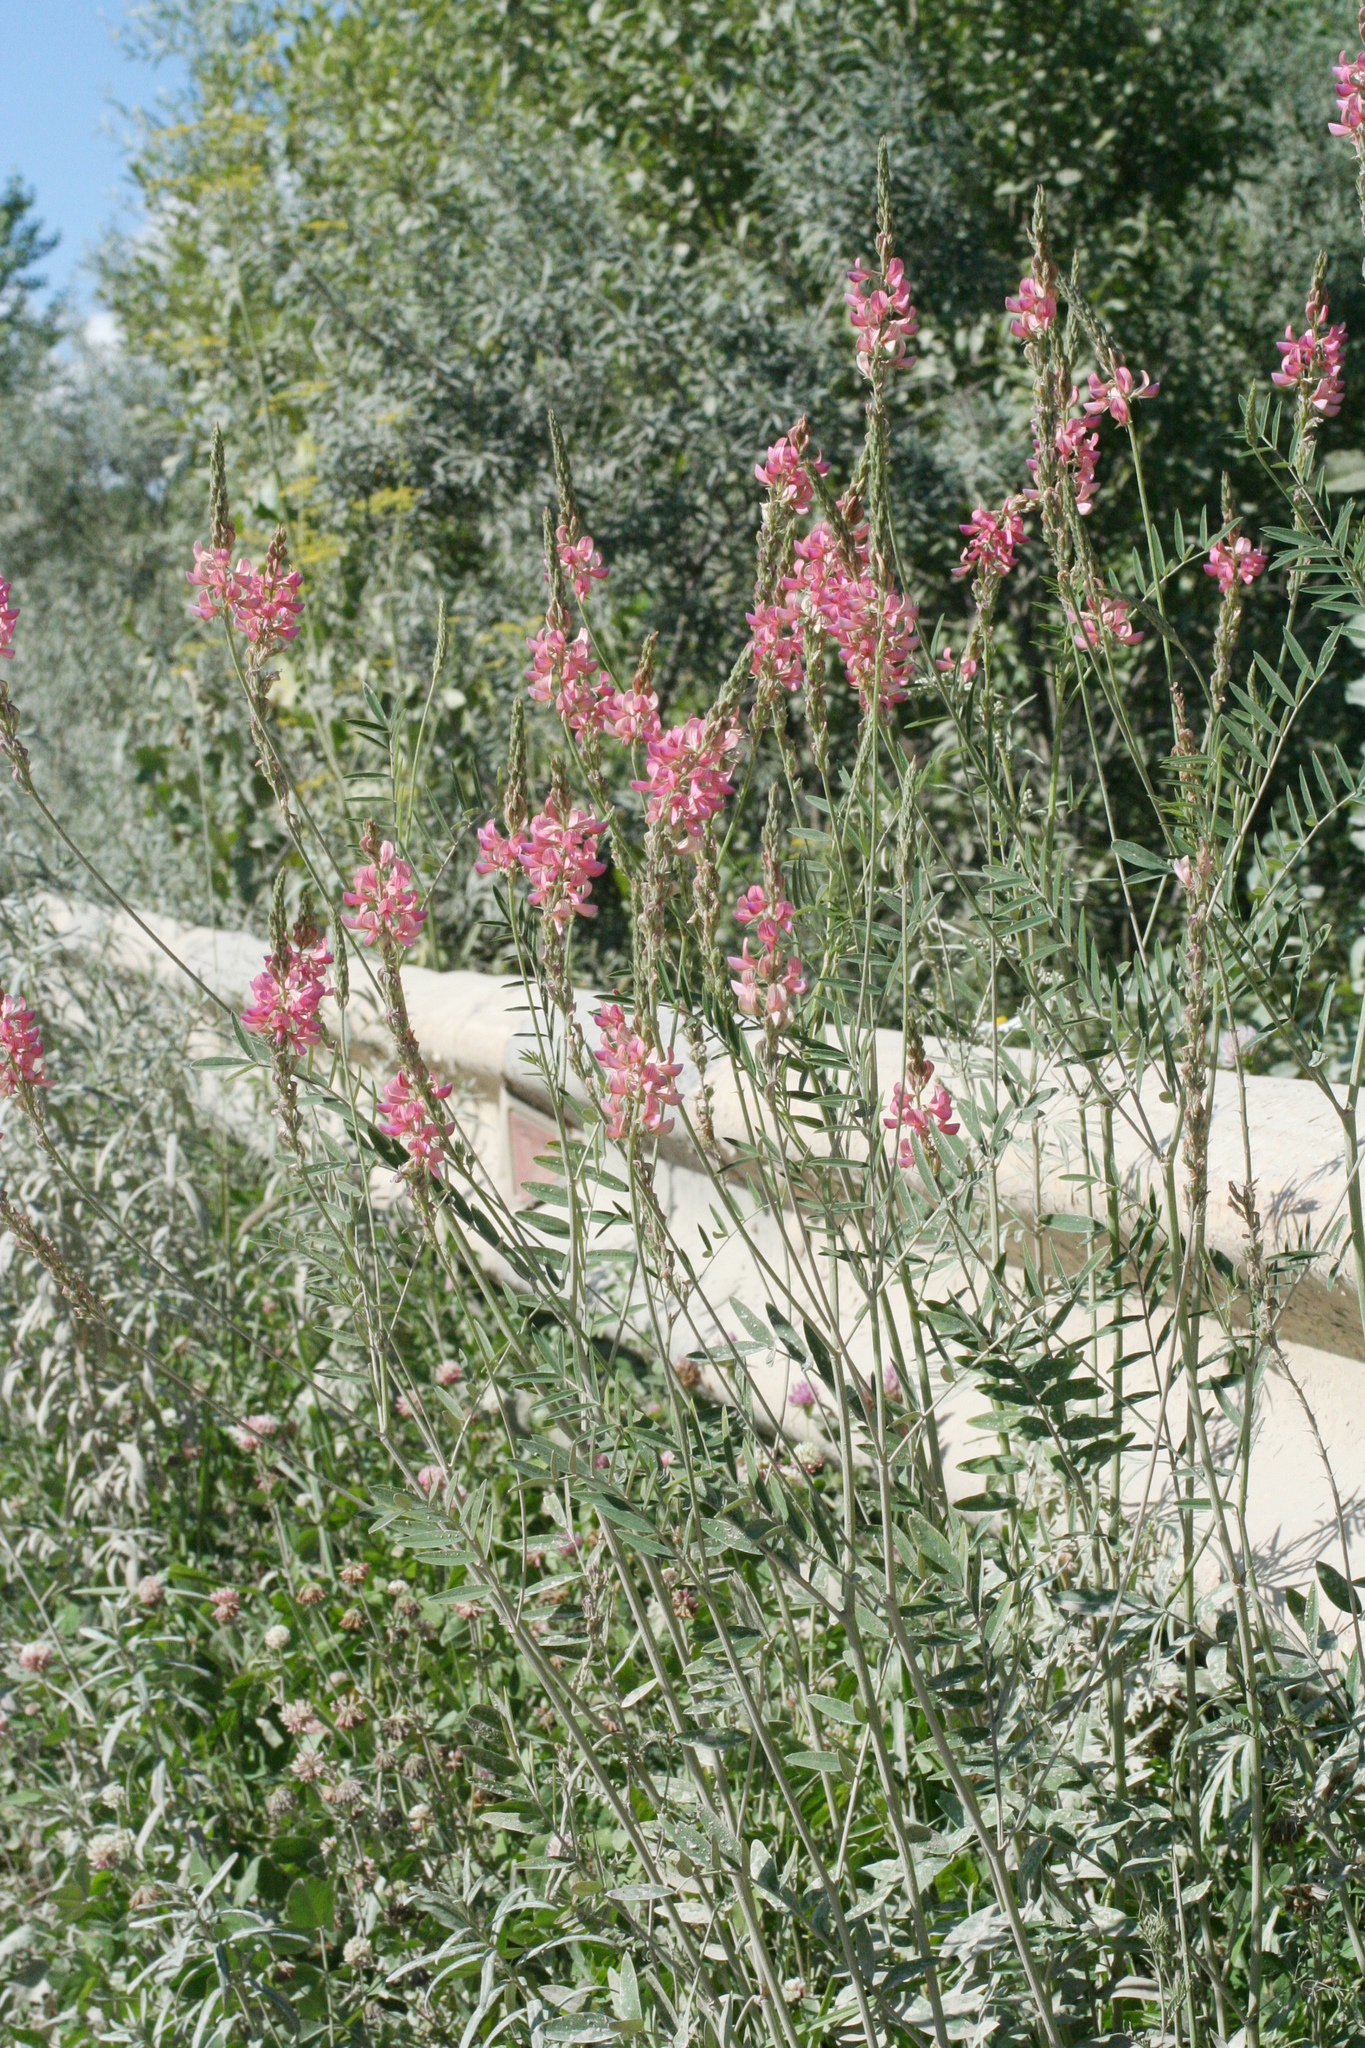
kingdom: Plantae
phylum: Tracheophyta
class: Magnoliopsida
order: Fabales
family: Fabaceae
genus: Onobrychis
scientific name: Onobrychis arenaria
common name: Sand esparcet
